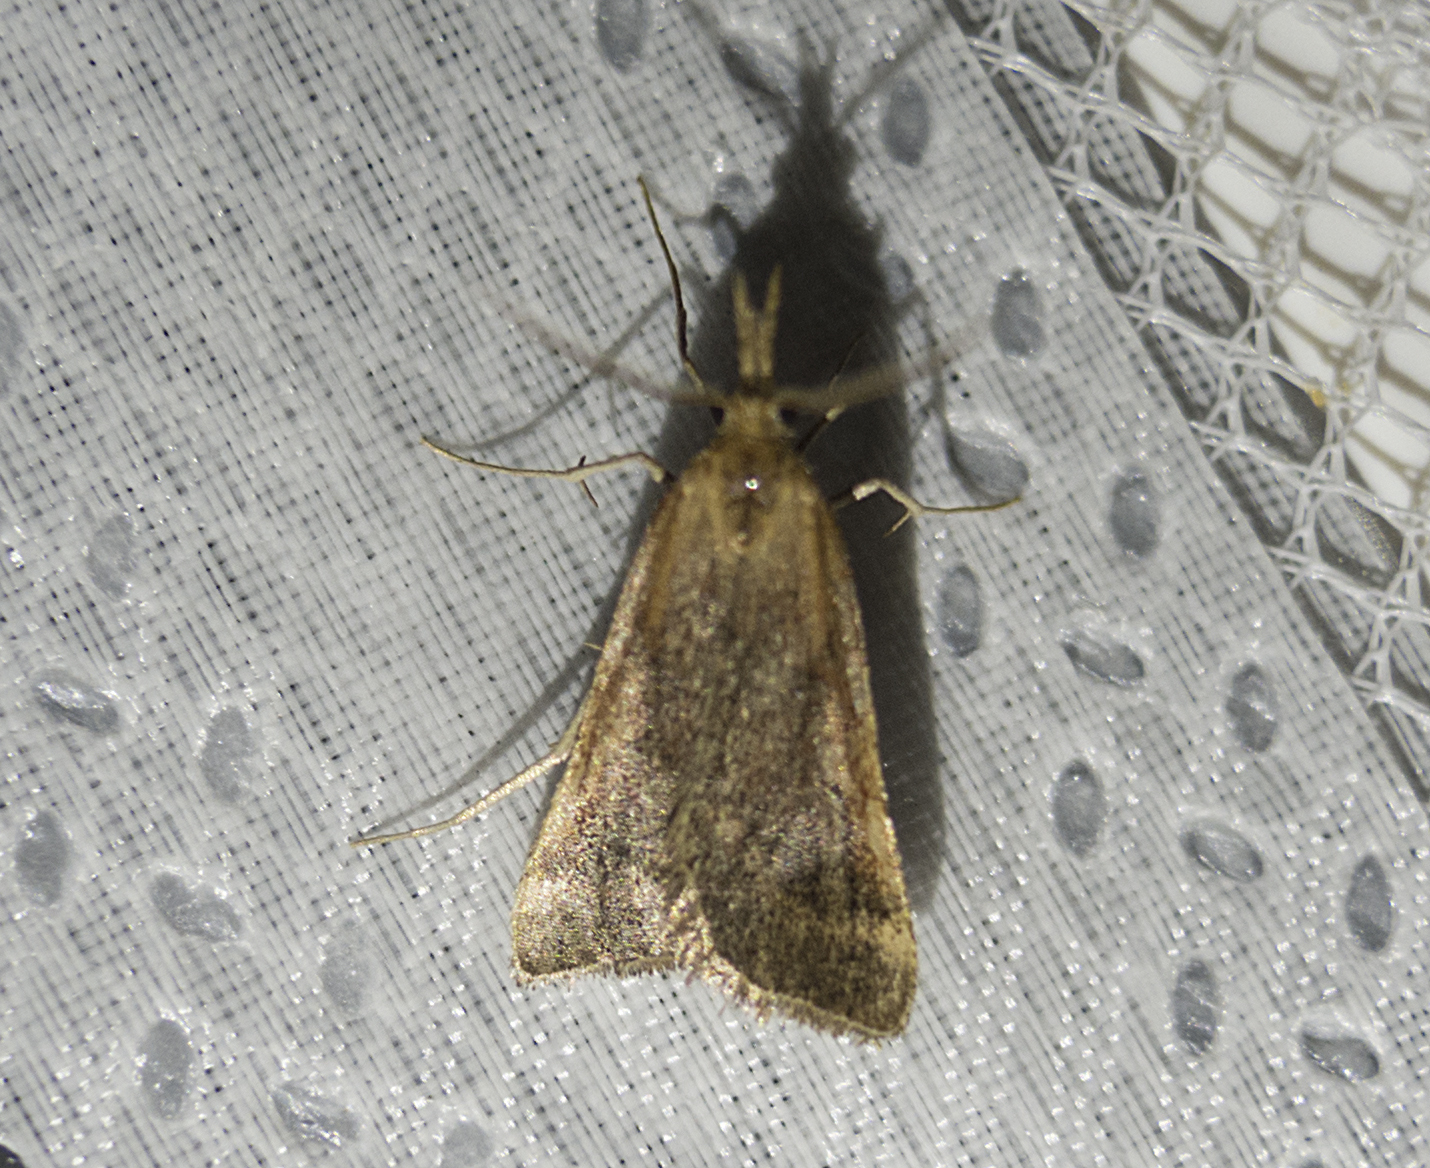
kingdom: Animalia
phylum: Arthropoda
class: Insecta
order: Lepidoptera
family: Pyralidae
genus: Synaphe
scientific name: Synaphe punctalis
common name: Long-legged tabby
